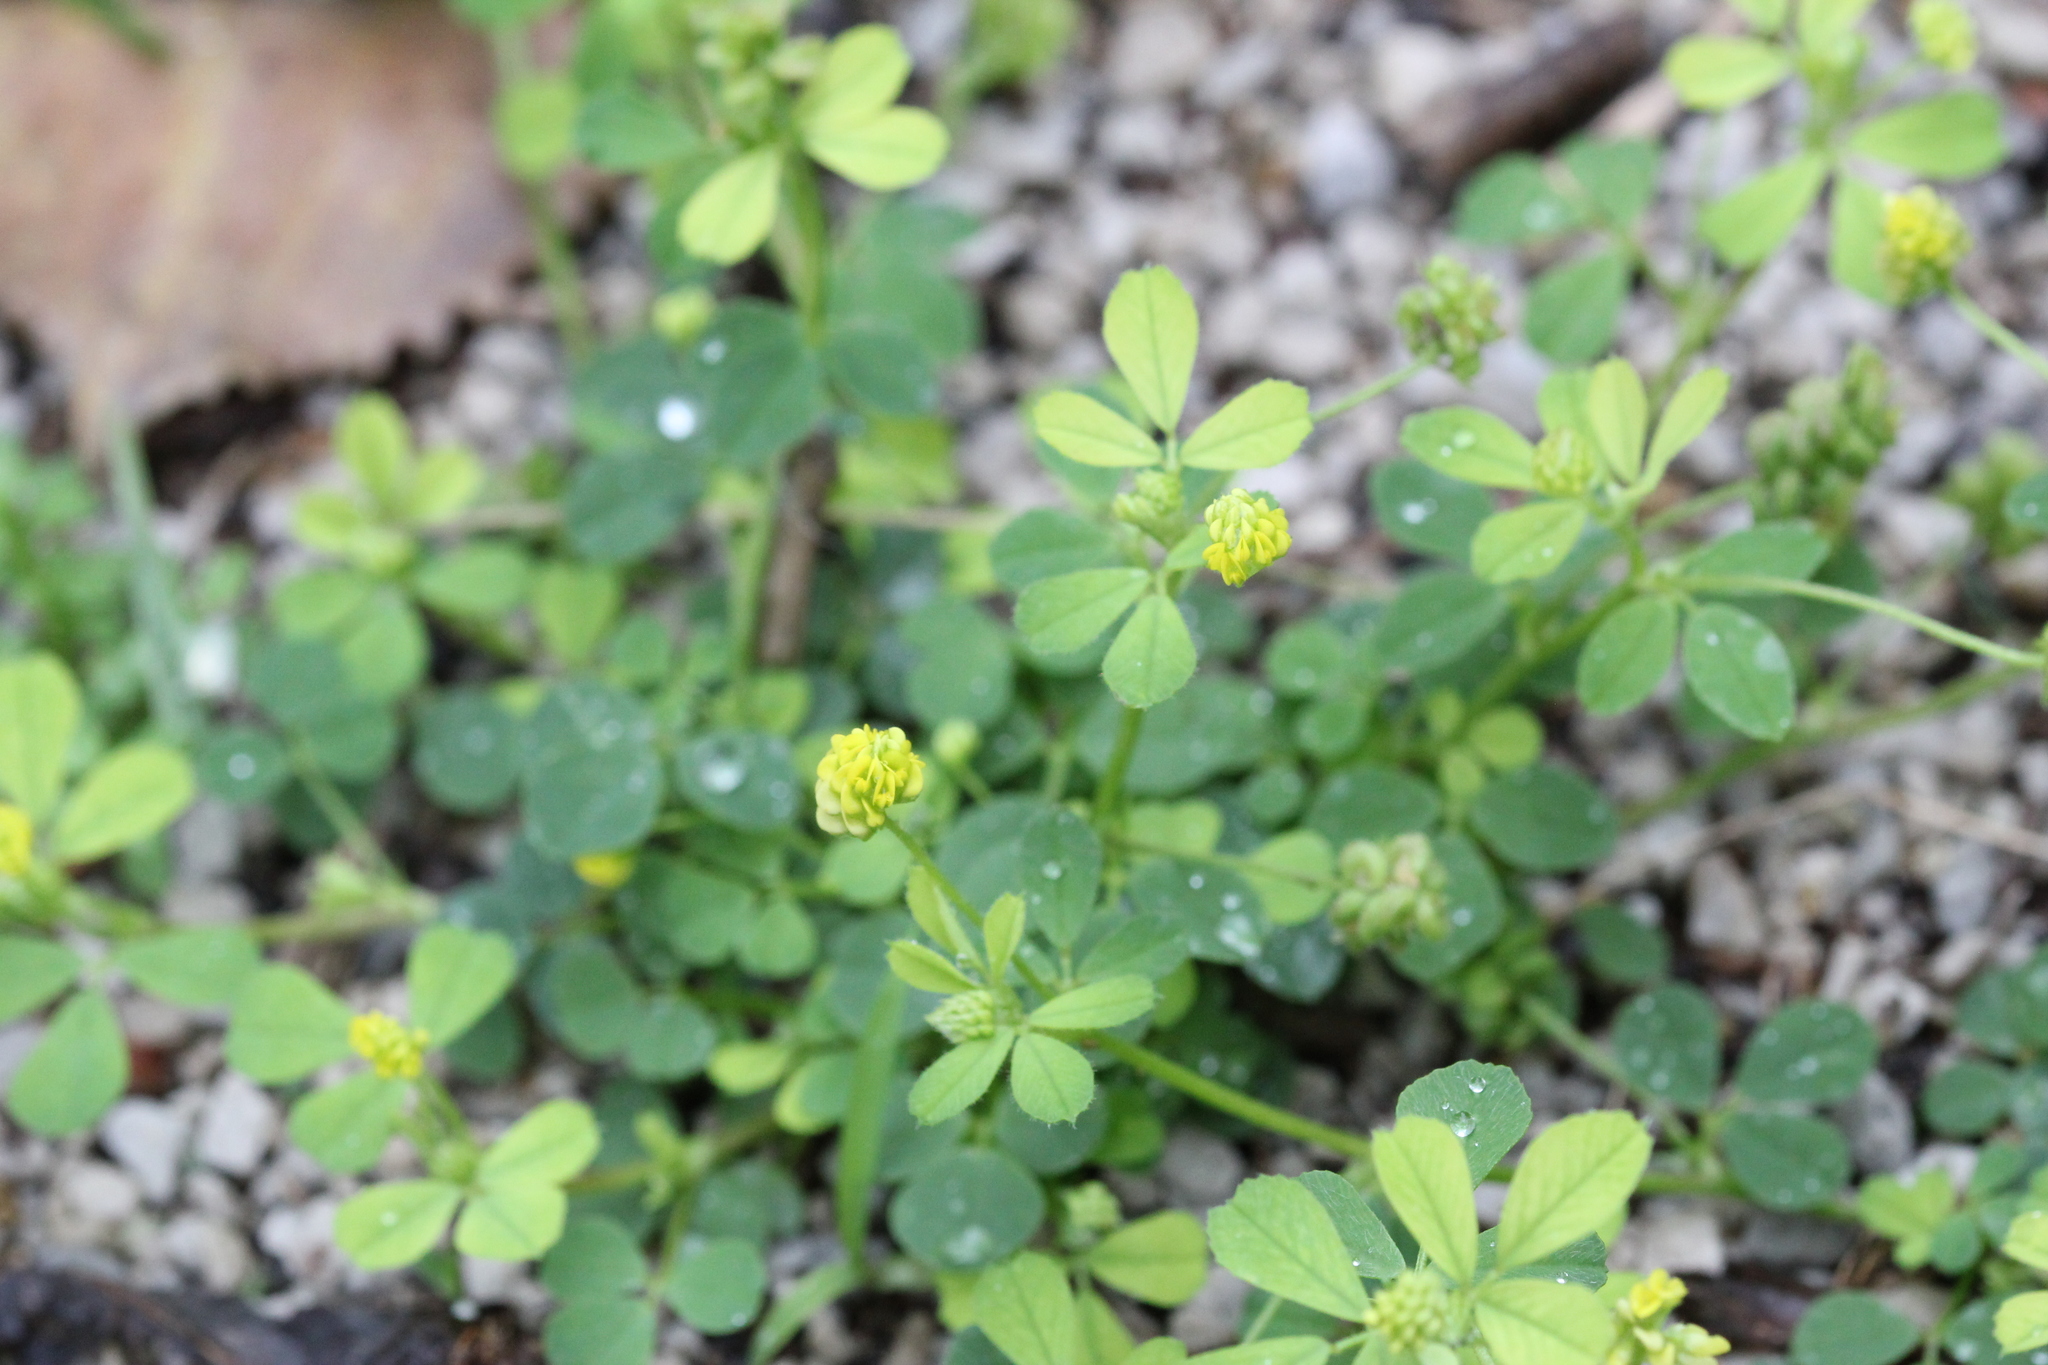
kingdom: Plantae
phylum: Tracheophyta
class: Magnoliopsida
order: Fabales
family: Fabaceae
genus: Medicago
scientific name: Medicago lupulina
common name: Black medick
